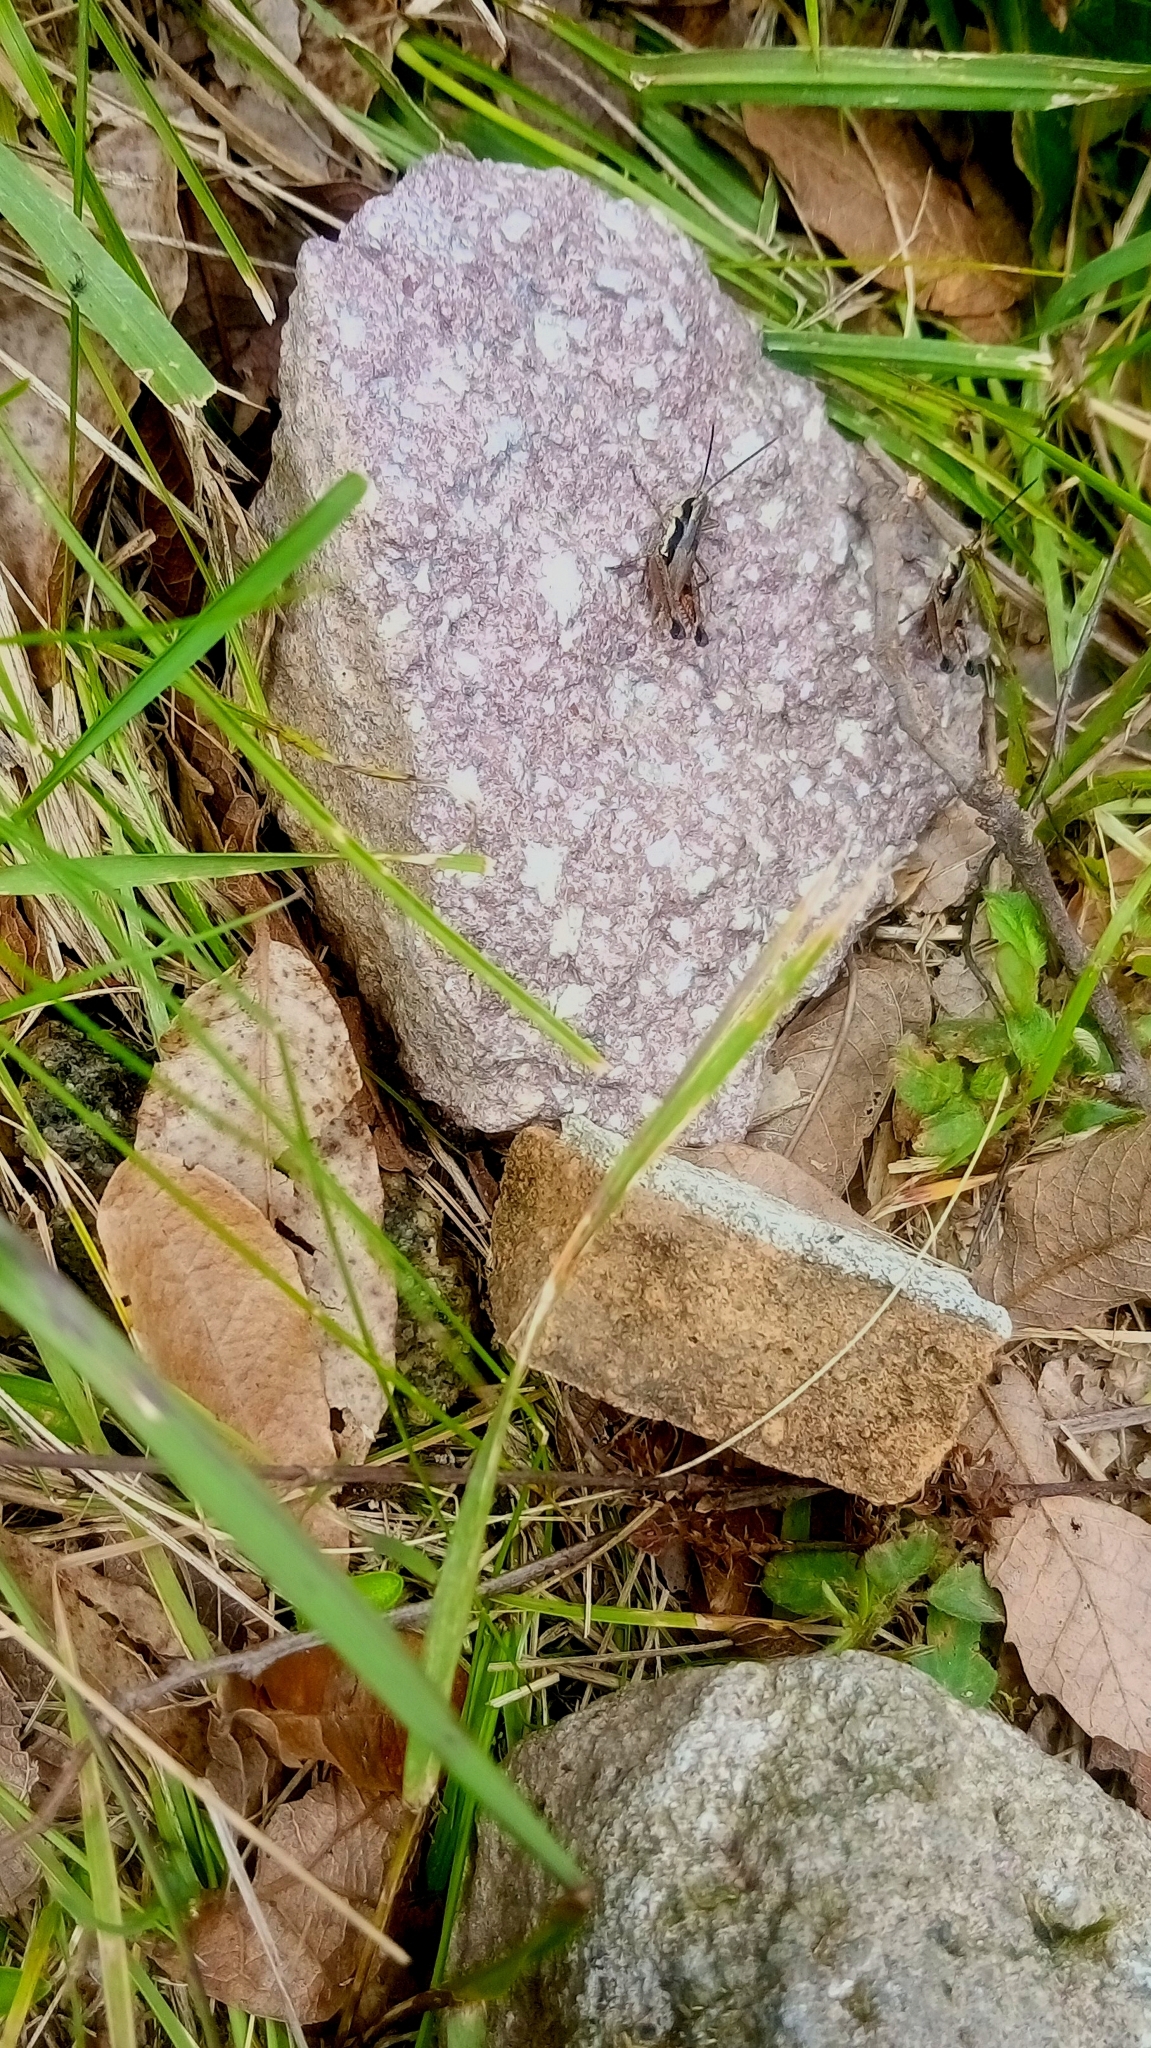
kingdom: Animalia
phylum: Arthropoda
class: Insecta
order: Orthoptera
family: Acrididae
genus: Boopedon
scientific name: Boopedon rufipes
